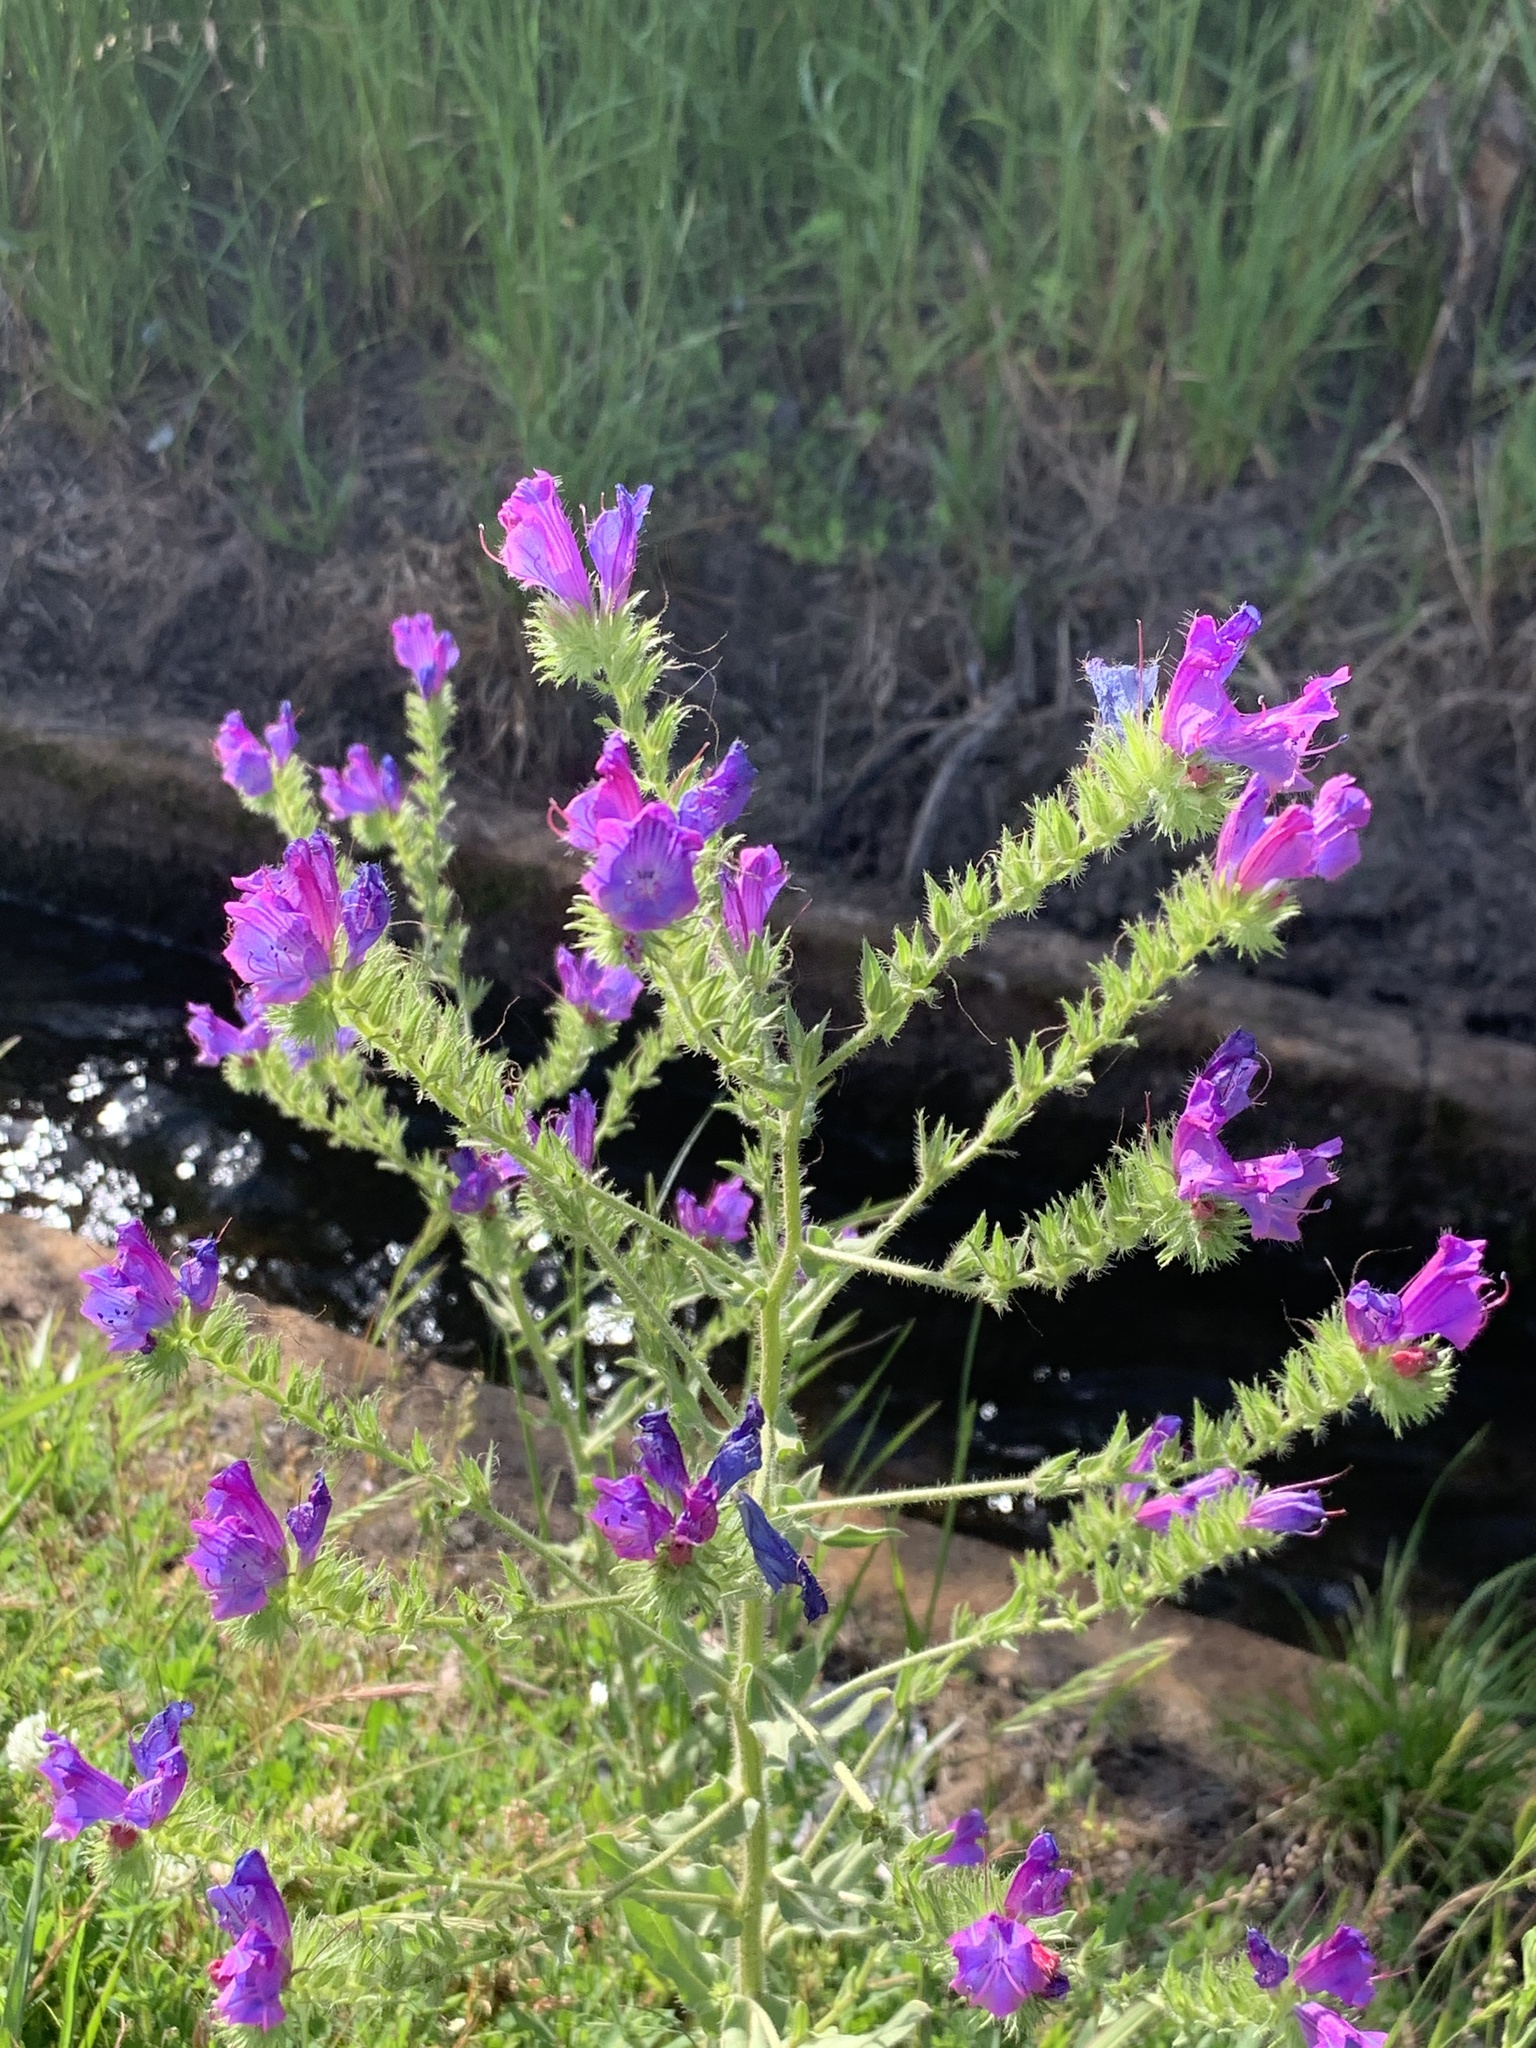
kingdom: Plantae
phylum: Tracheophyta
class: Magnoliopsida
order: Boraginales
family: Boraginaceae
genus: Echium
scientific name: Echium plantagineum
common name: Purple viper's-bugloss
